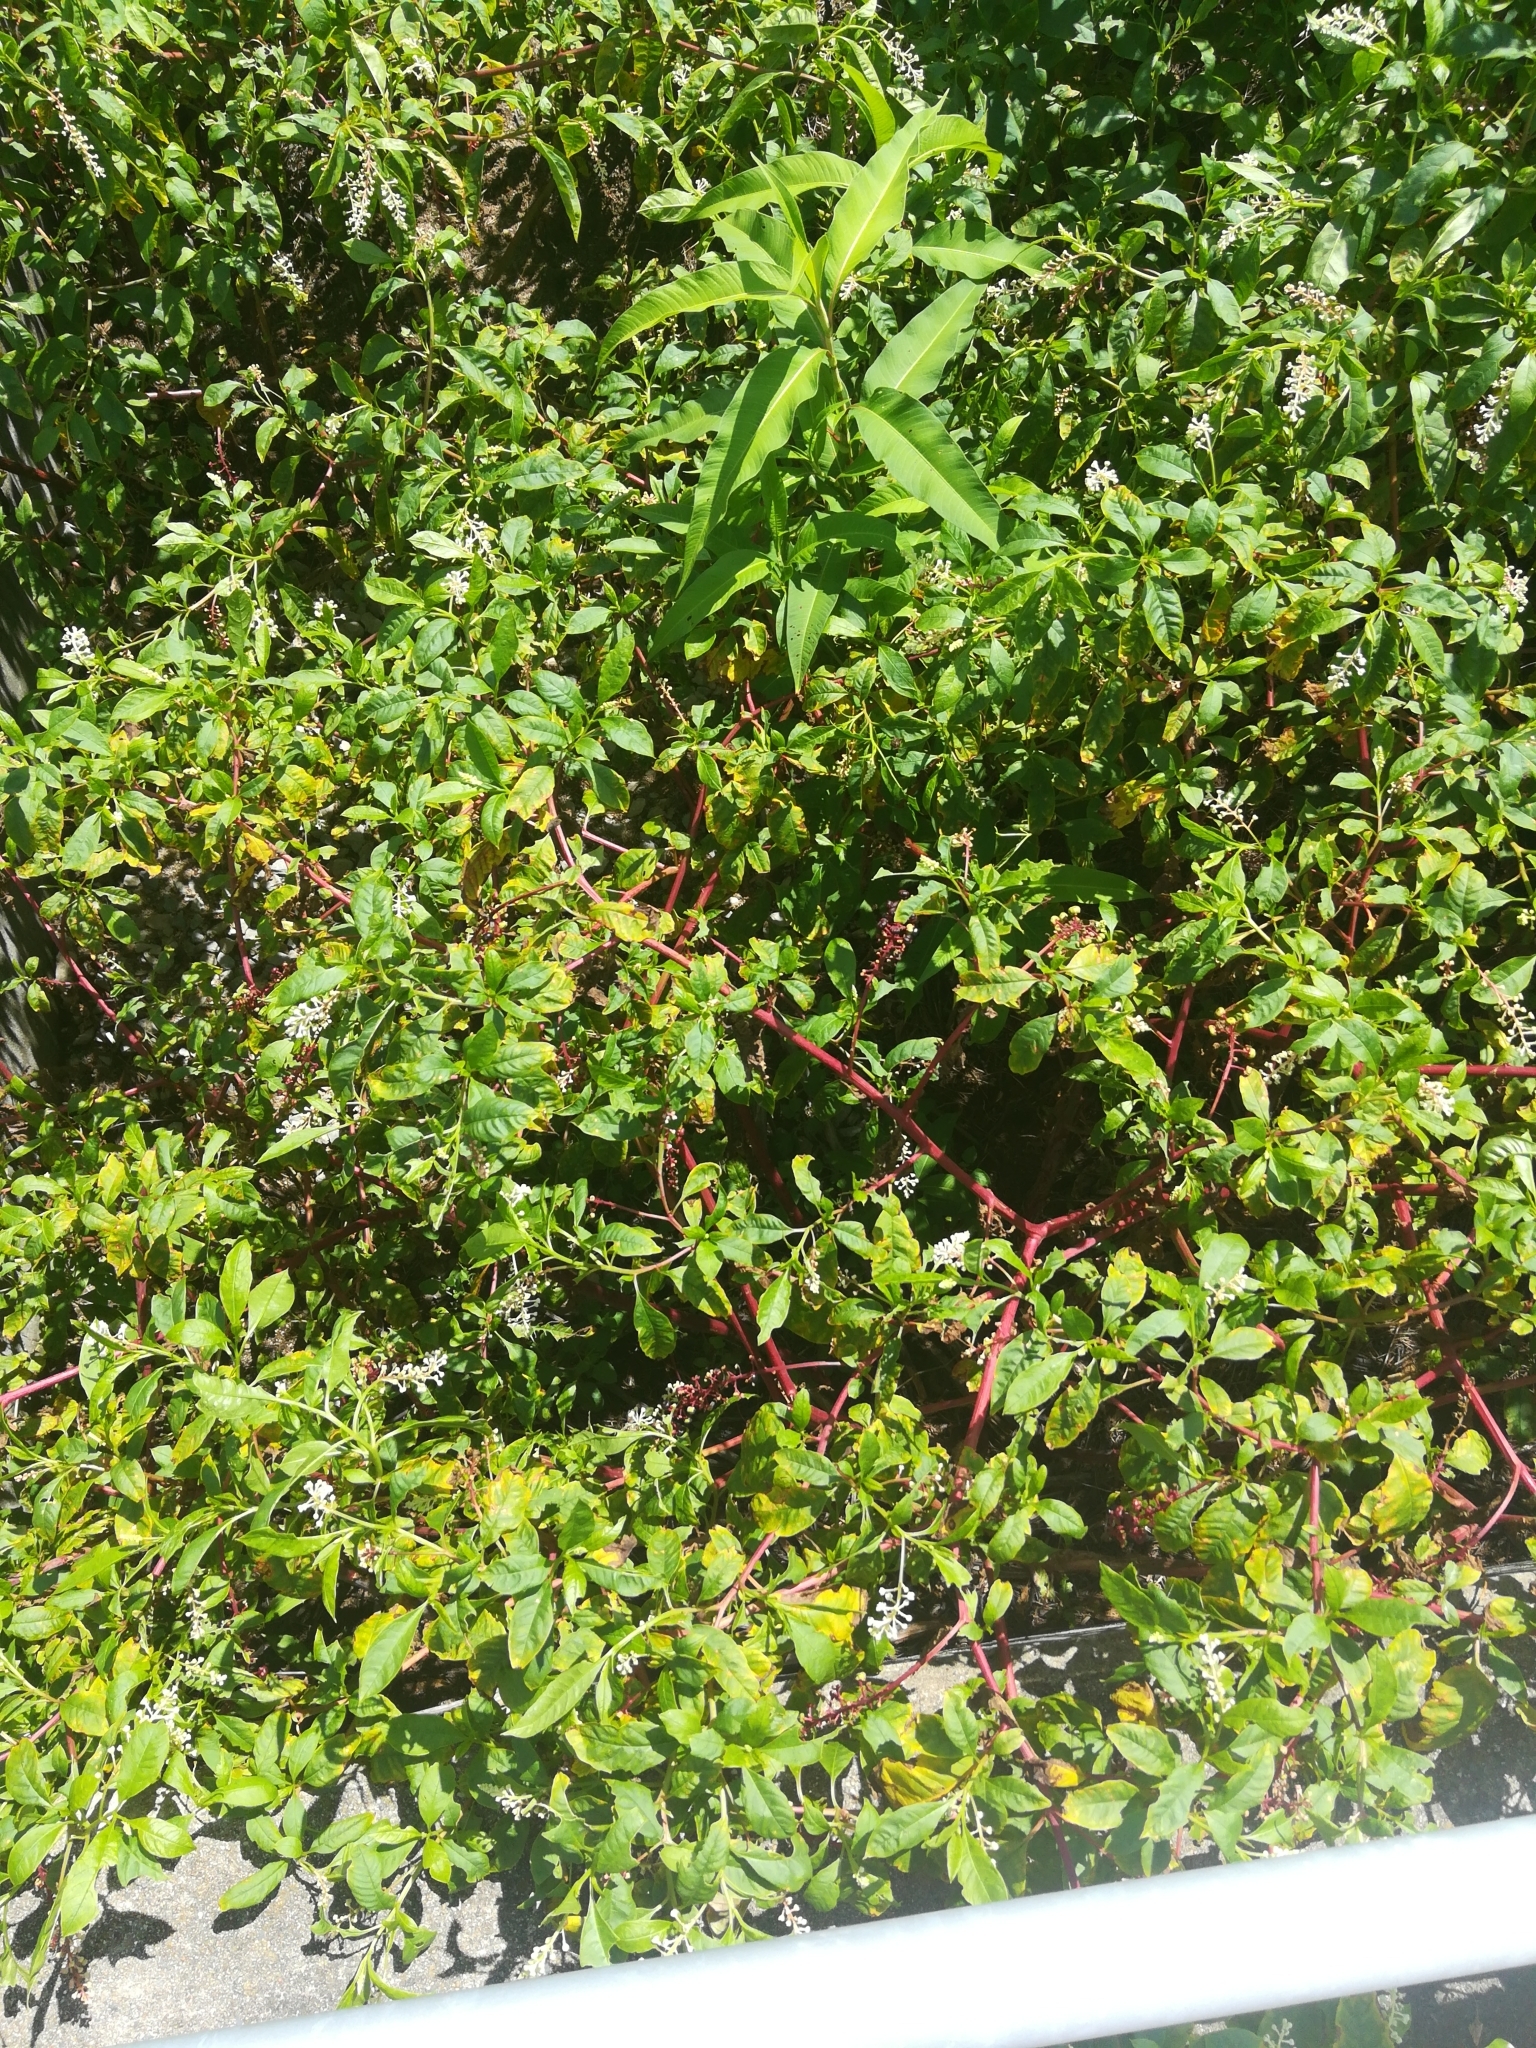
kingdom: Plantae
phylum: Tracheophyta
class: Magnoliopsida
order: Caryophyllales
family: Phytolaccaceae
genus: Phytolacca
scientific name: Phytolacca americana
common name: American pokeweed
